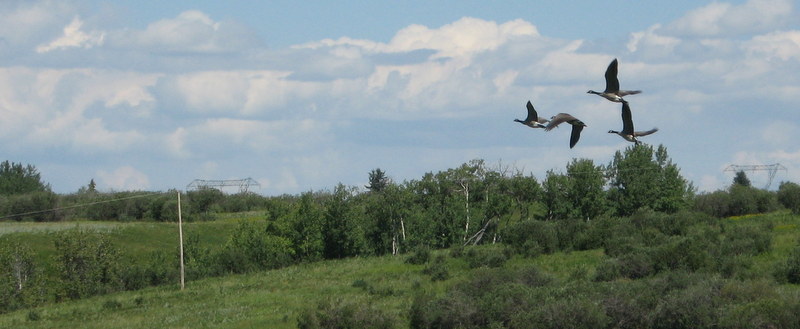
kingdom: Animalia
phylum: Chordata
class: Aves
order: Anseriformes
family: Anatidae
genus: Branta
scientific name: Branta canadensis
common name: Canada goose
